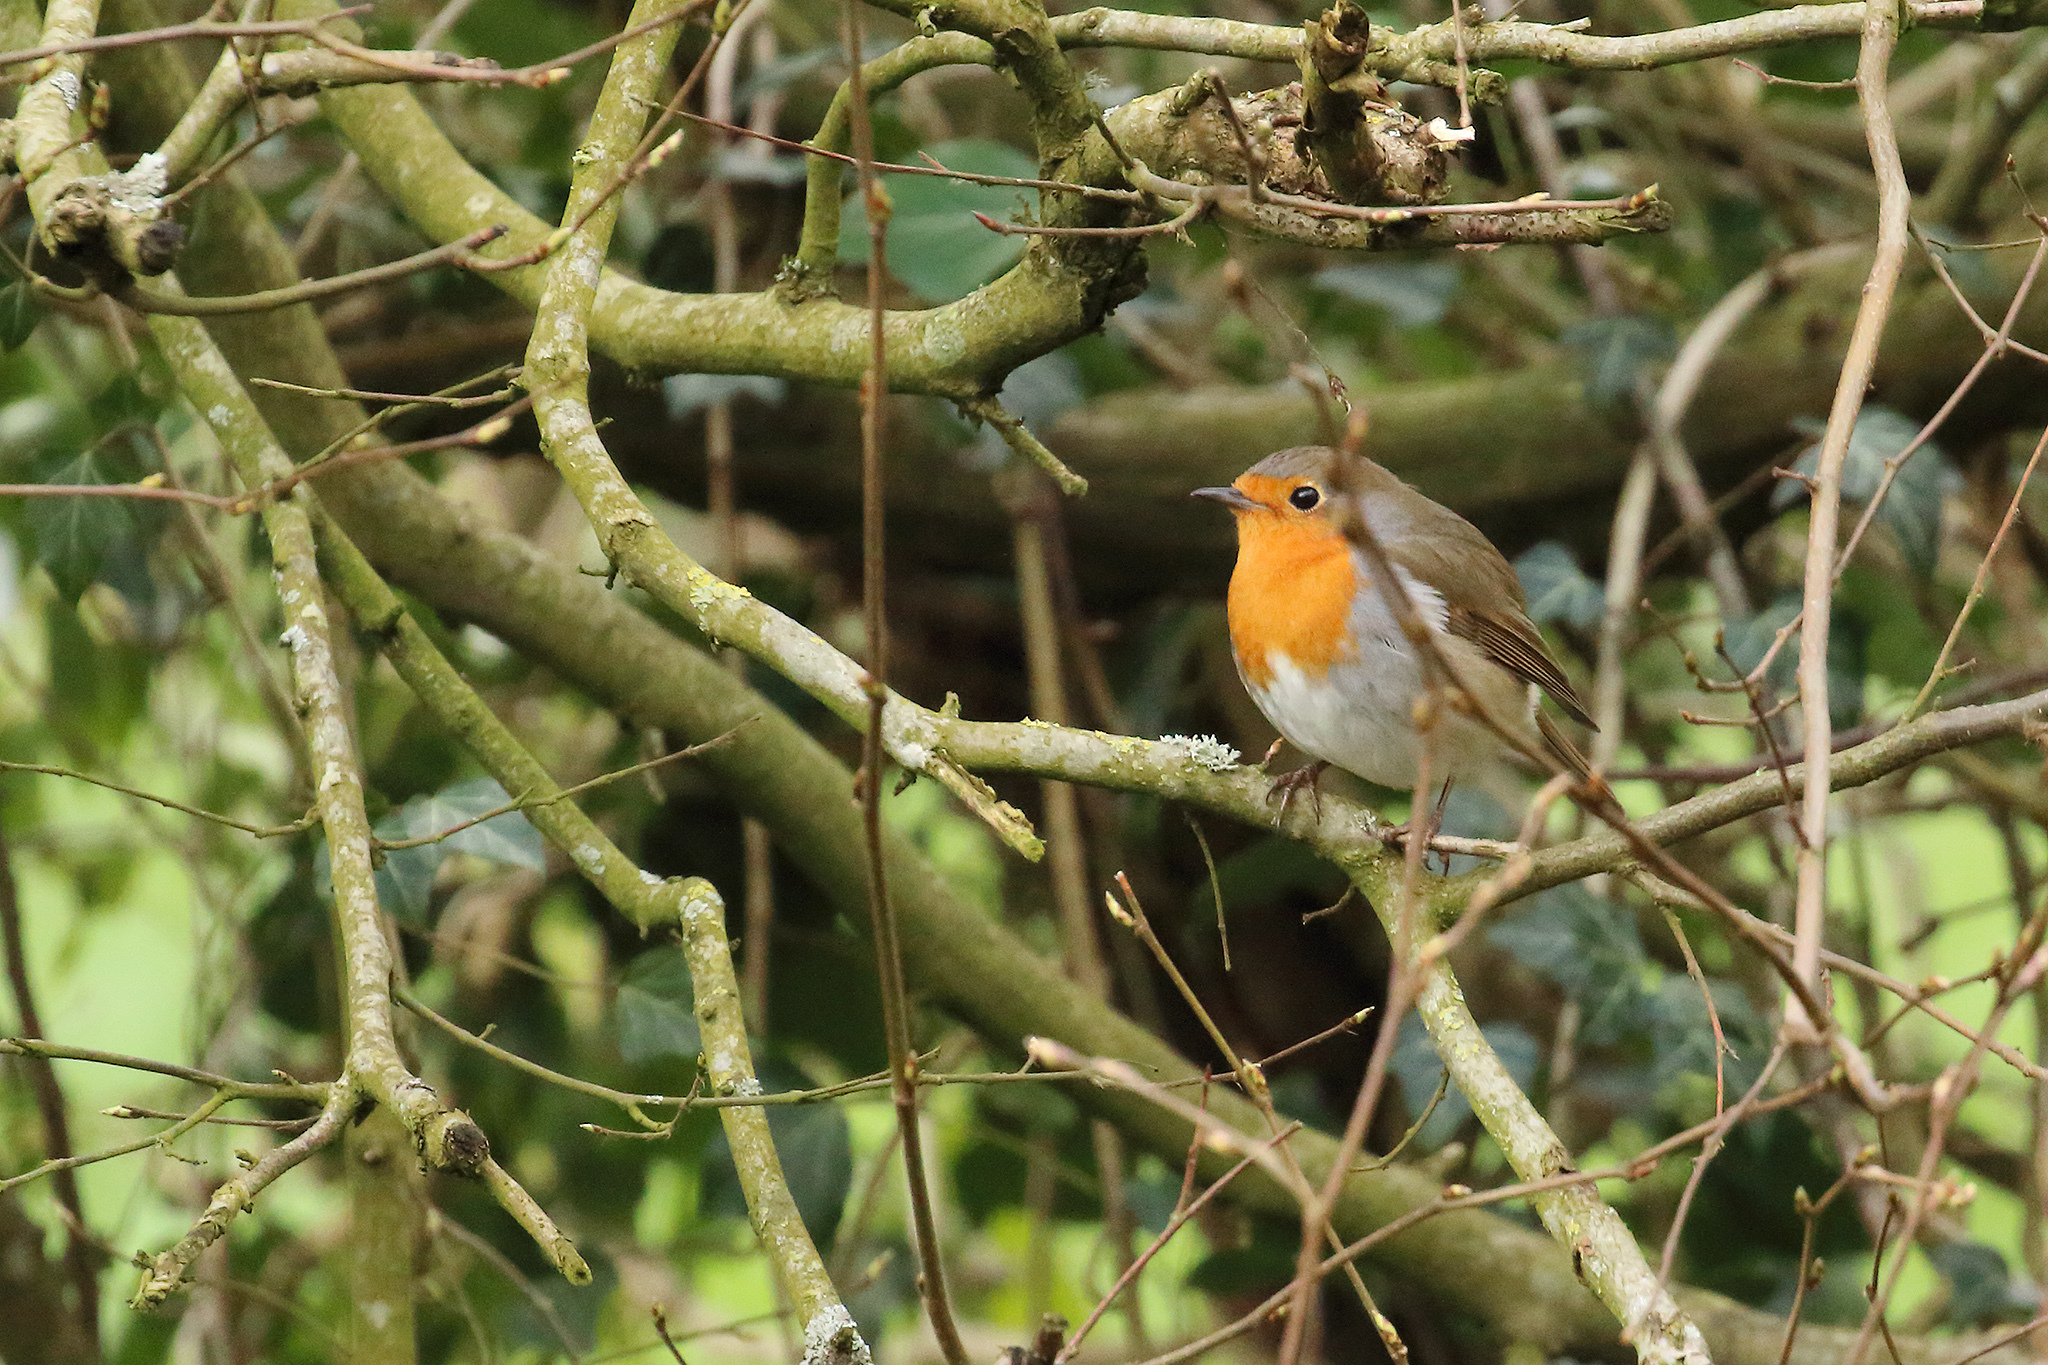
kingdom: Animalia
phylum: Chordata
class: Aves
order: Passeriformes
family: Muscicapidae
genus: Erithacus
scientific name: Erithacus rubecula
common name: European robin
